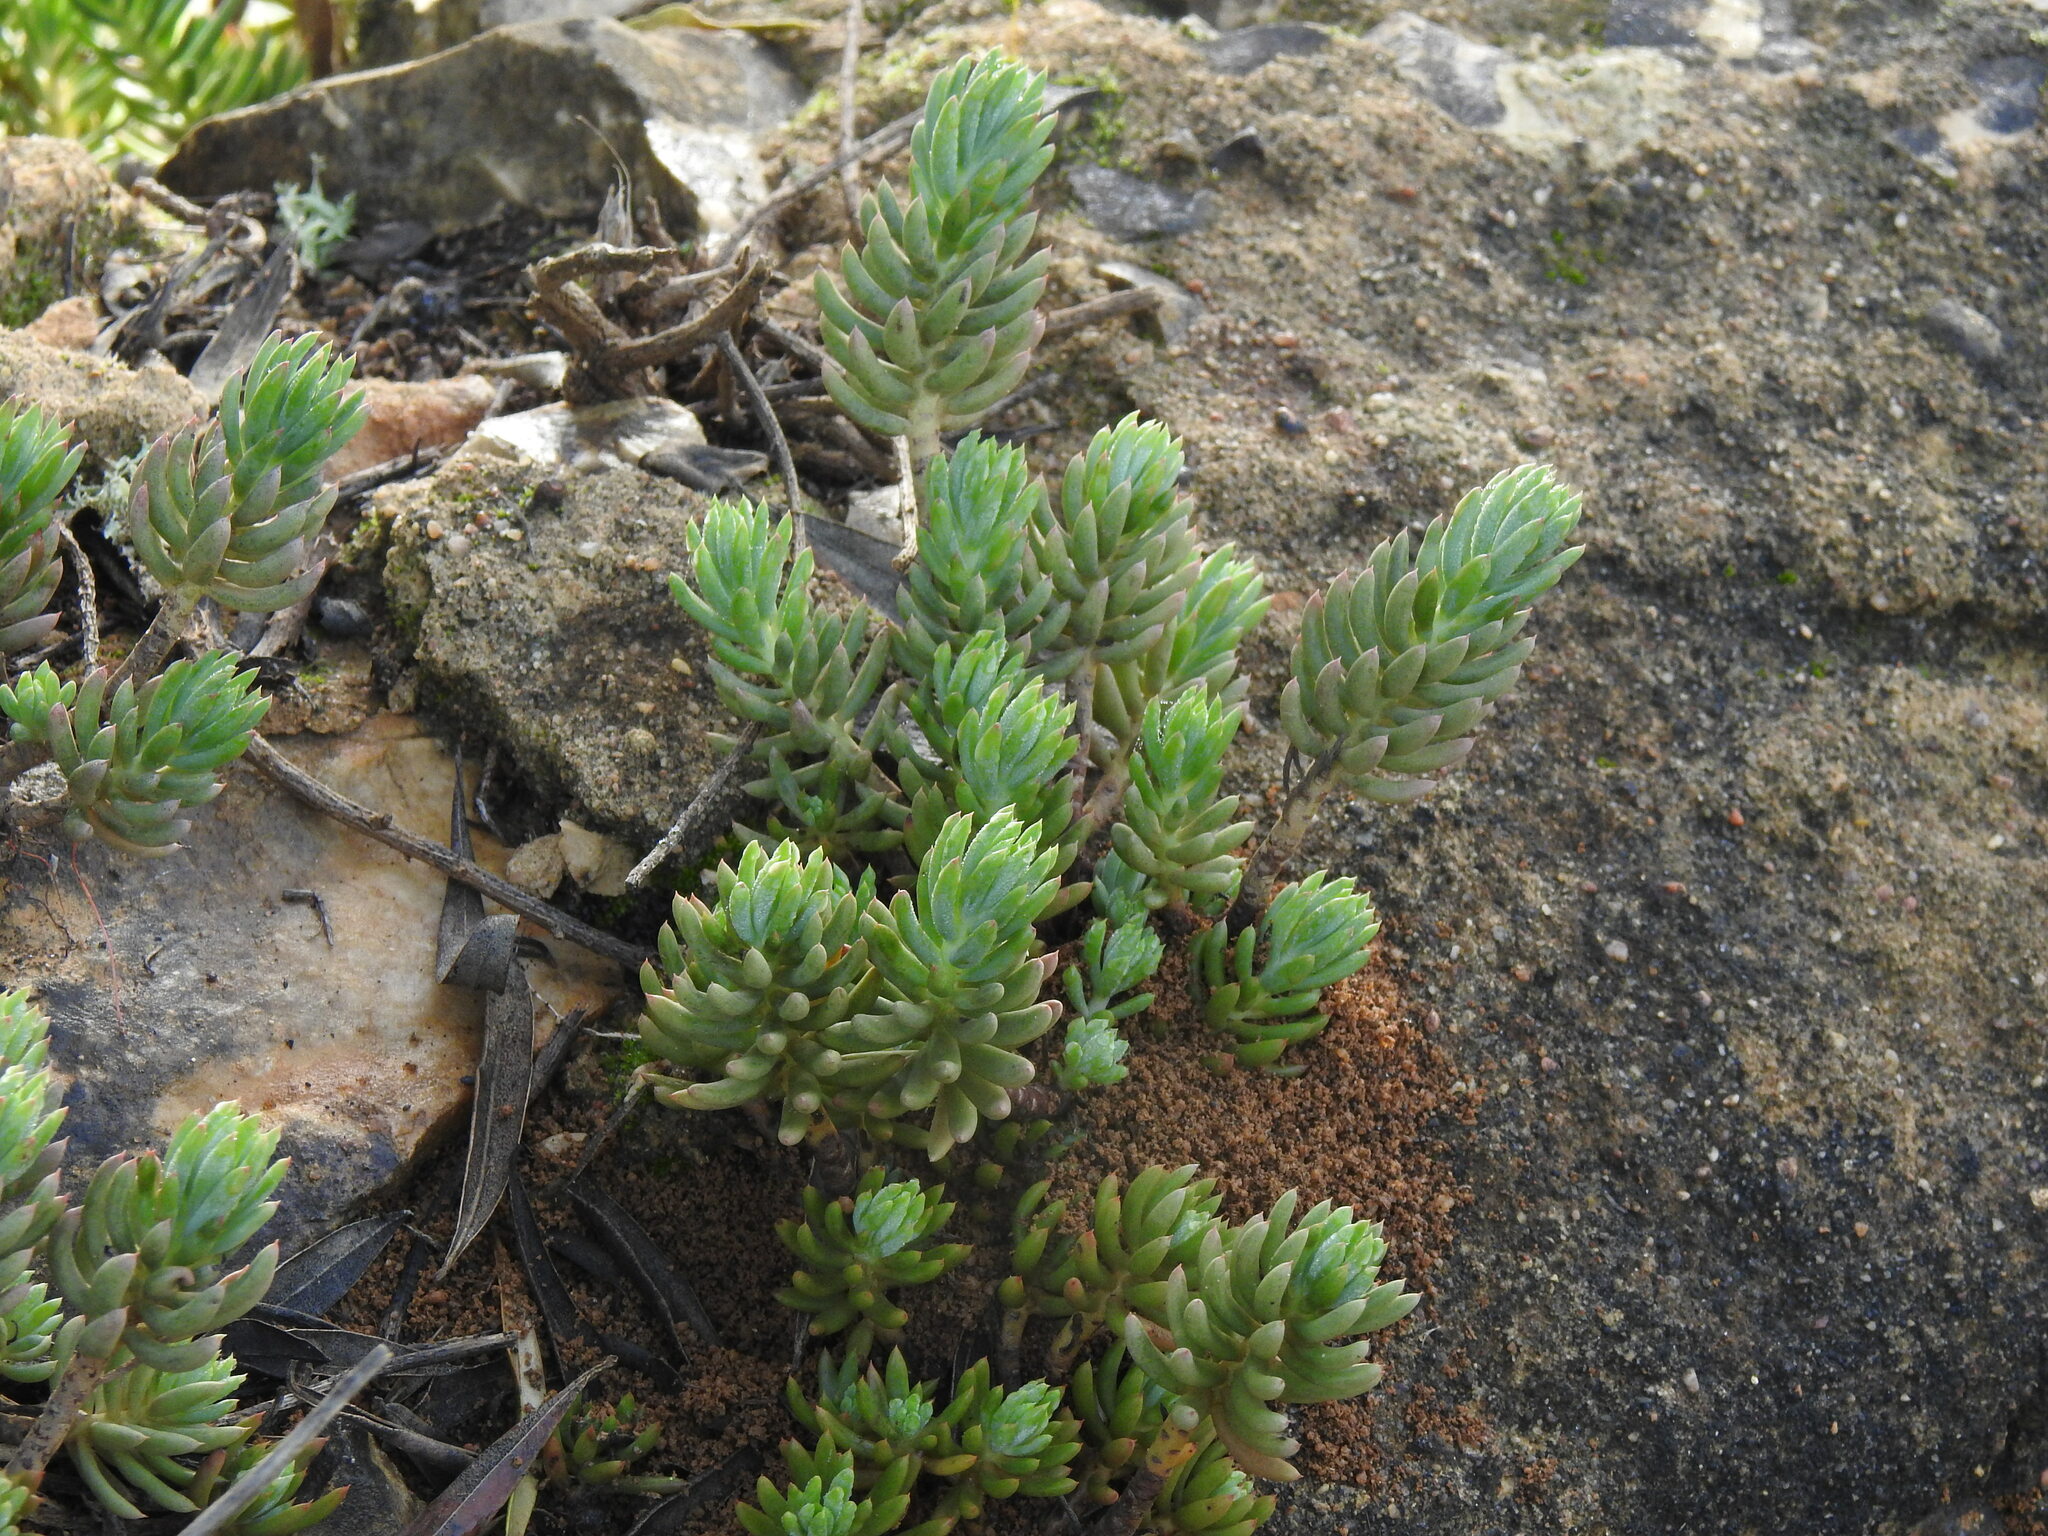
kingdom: Plantae
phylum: Tracheophyta
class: Magnoliopsida
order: Saxifragales
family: Crassulaceae
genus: Petrosedum
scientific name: Petrosedum sediforme
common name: Pale stonecrop
